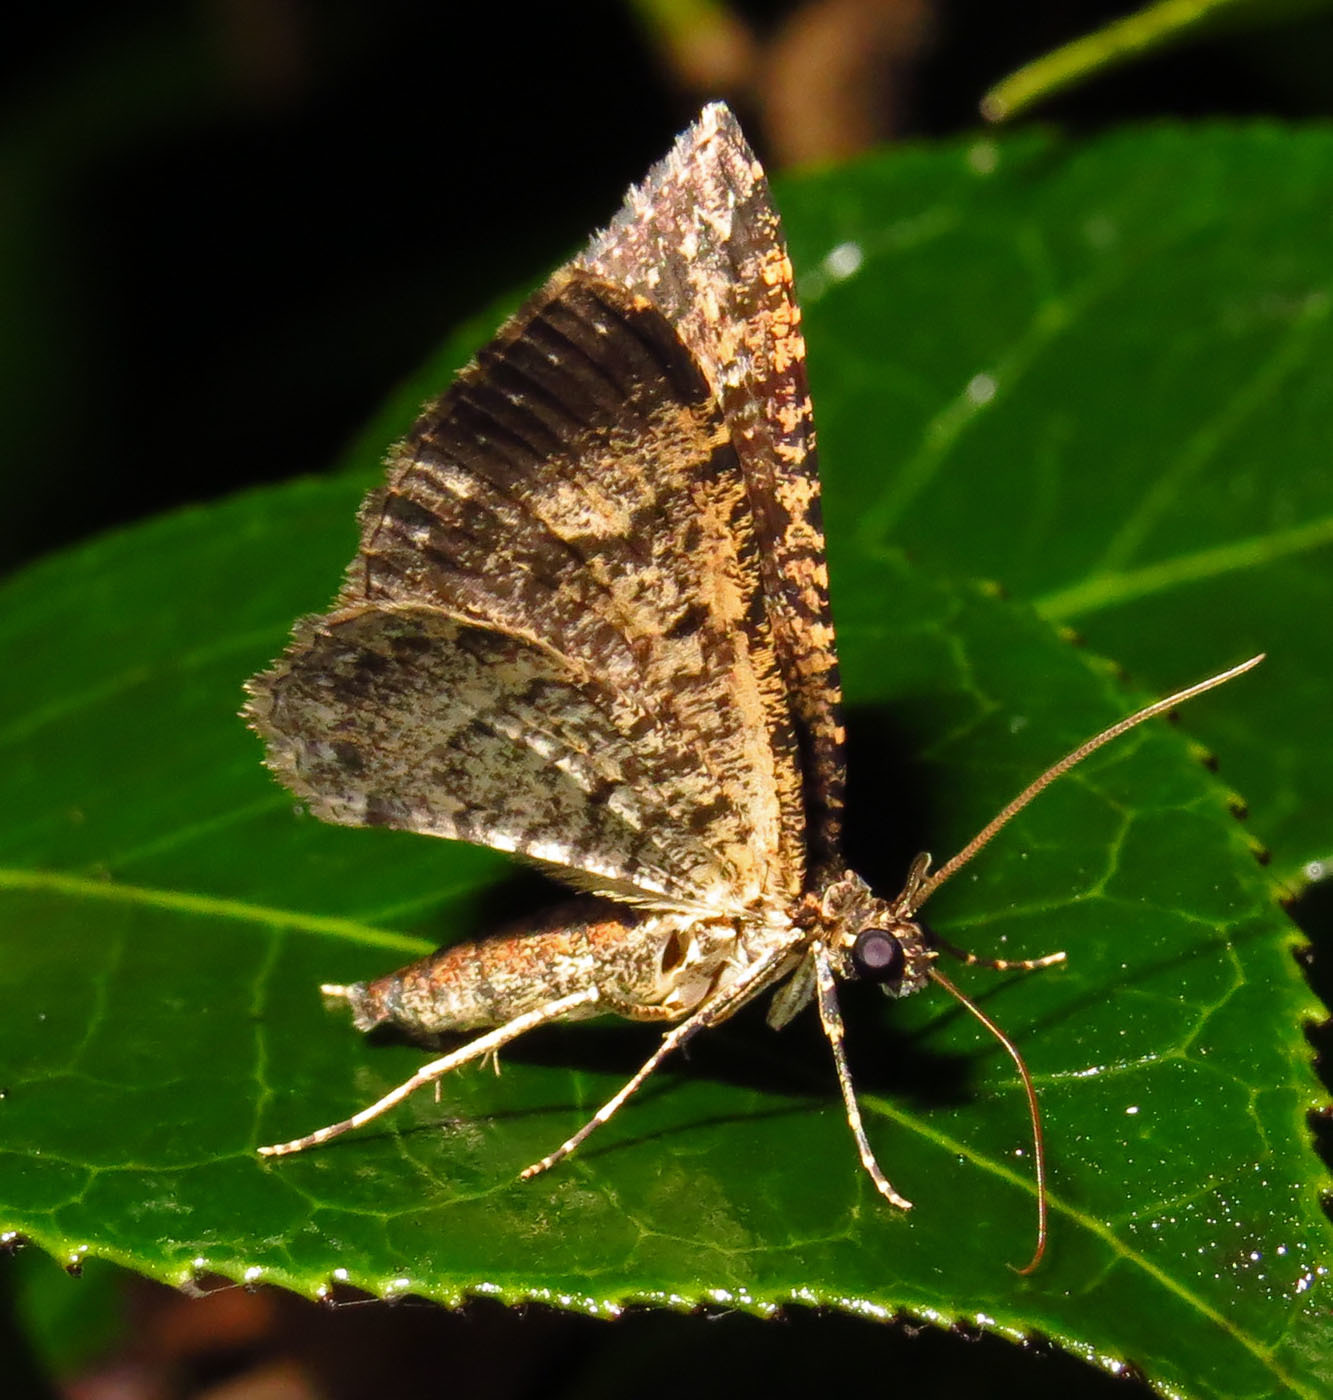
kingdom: Animalia
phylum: Arthropoda
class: Insecta
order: Lepidoptera
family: Geometridae
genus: Disclisioprocta
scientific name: Disclisioprocta stellata
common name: Somber carpet
